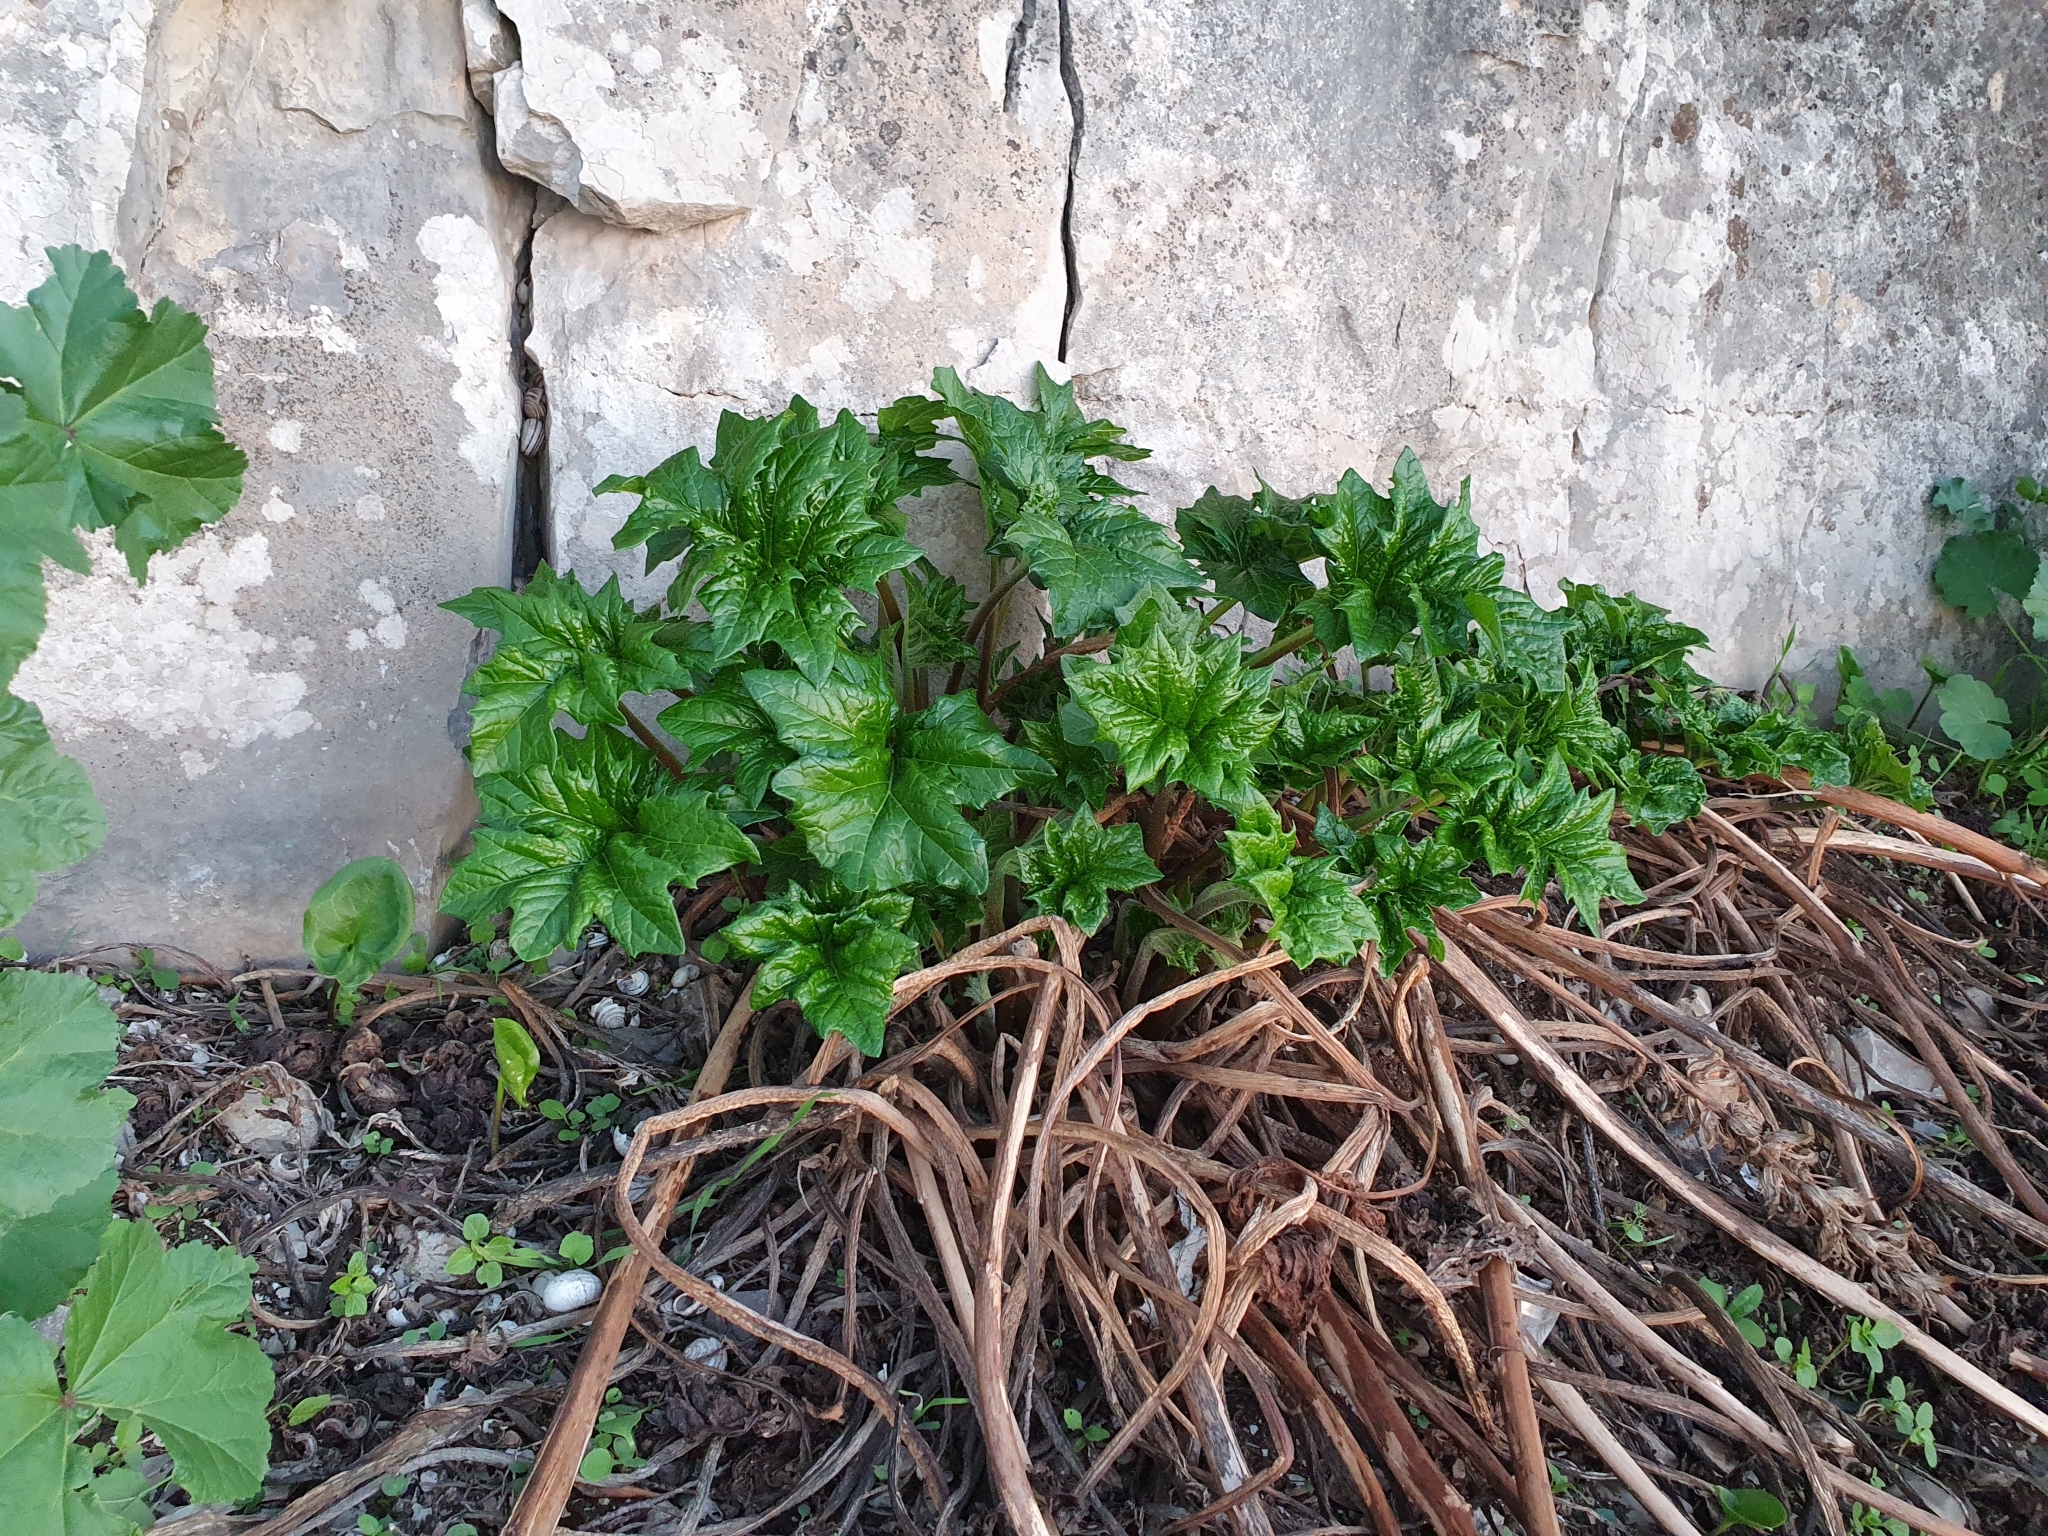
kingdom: Plantae
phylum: Tracheophyta
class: Magnoliopsida
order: Lamiales
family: Acanthaceae
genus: Acanthus
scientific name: Acanthus mollis
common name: Bear's-breech
